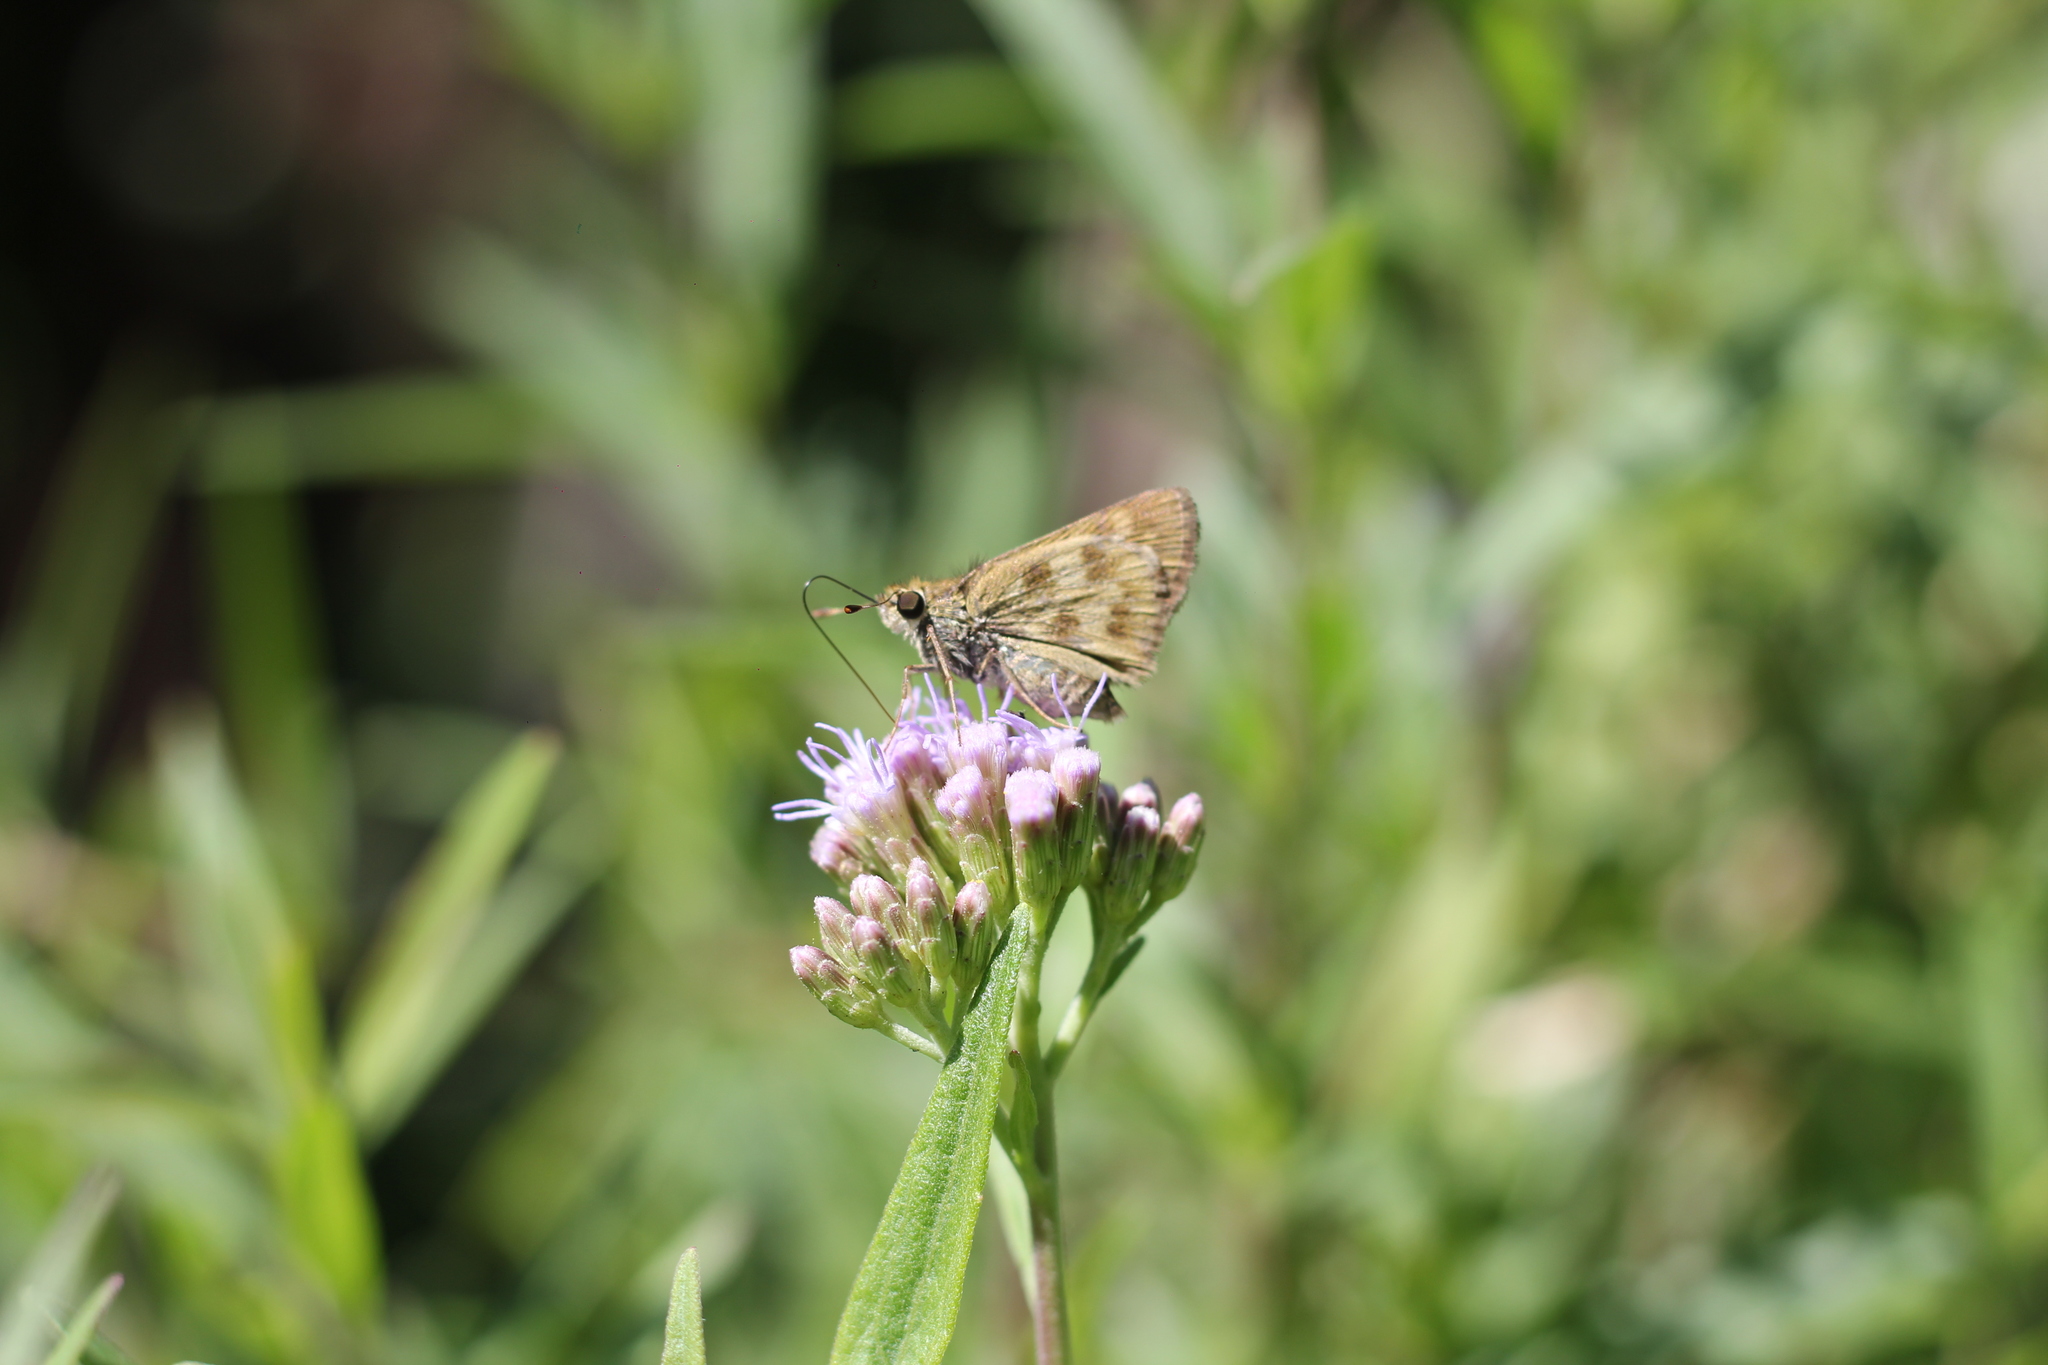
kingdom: Animalia
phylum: Arthropoda
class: Insecta
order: Lepidoptera
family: Hesperiidae
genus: Polites
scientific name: Polites vibex
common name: Whirlabout
